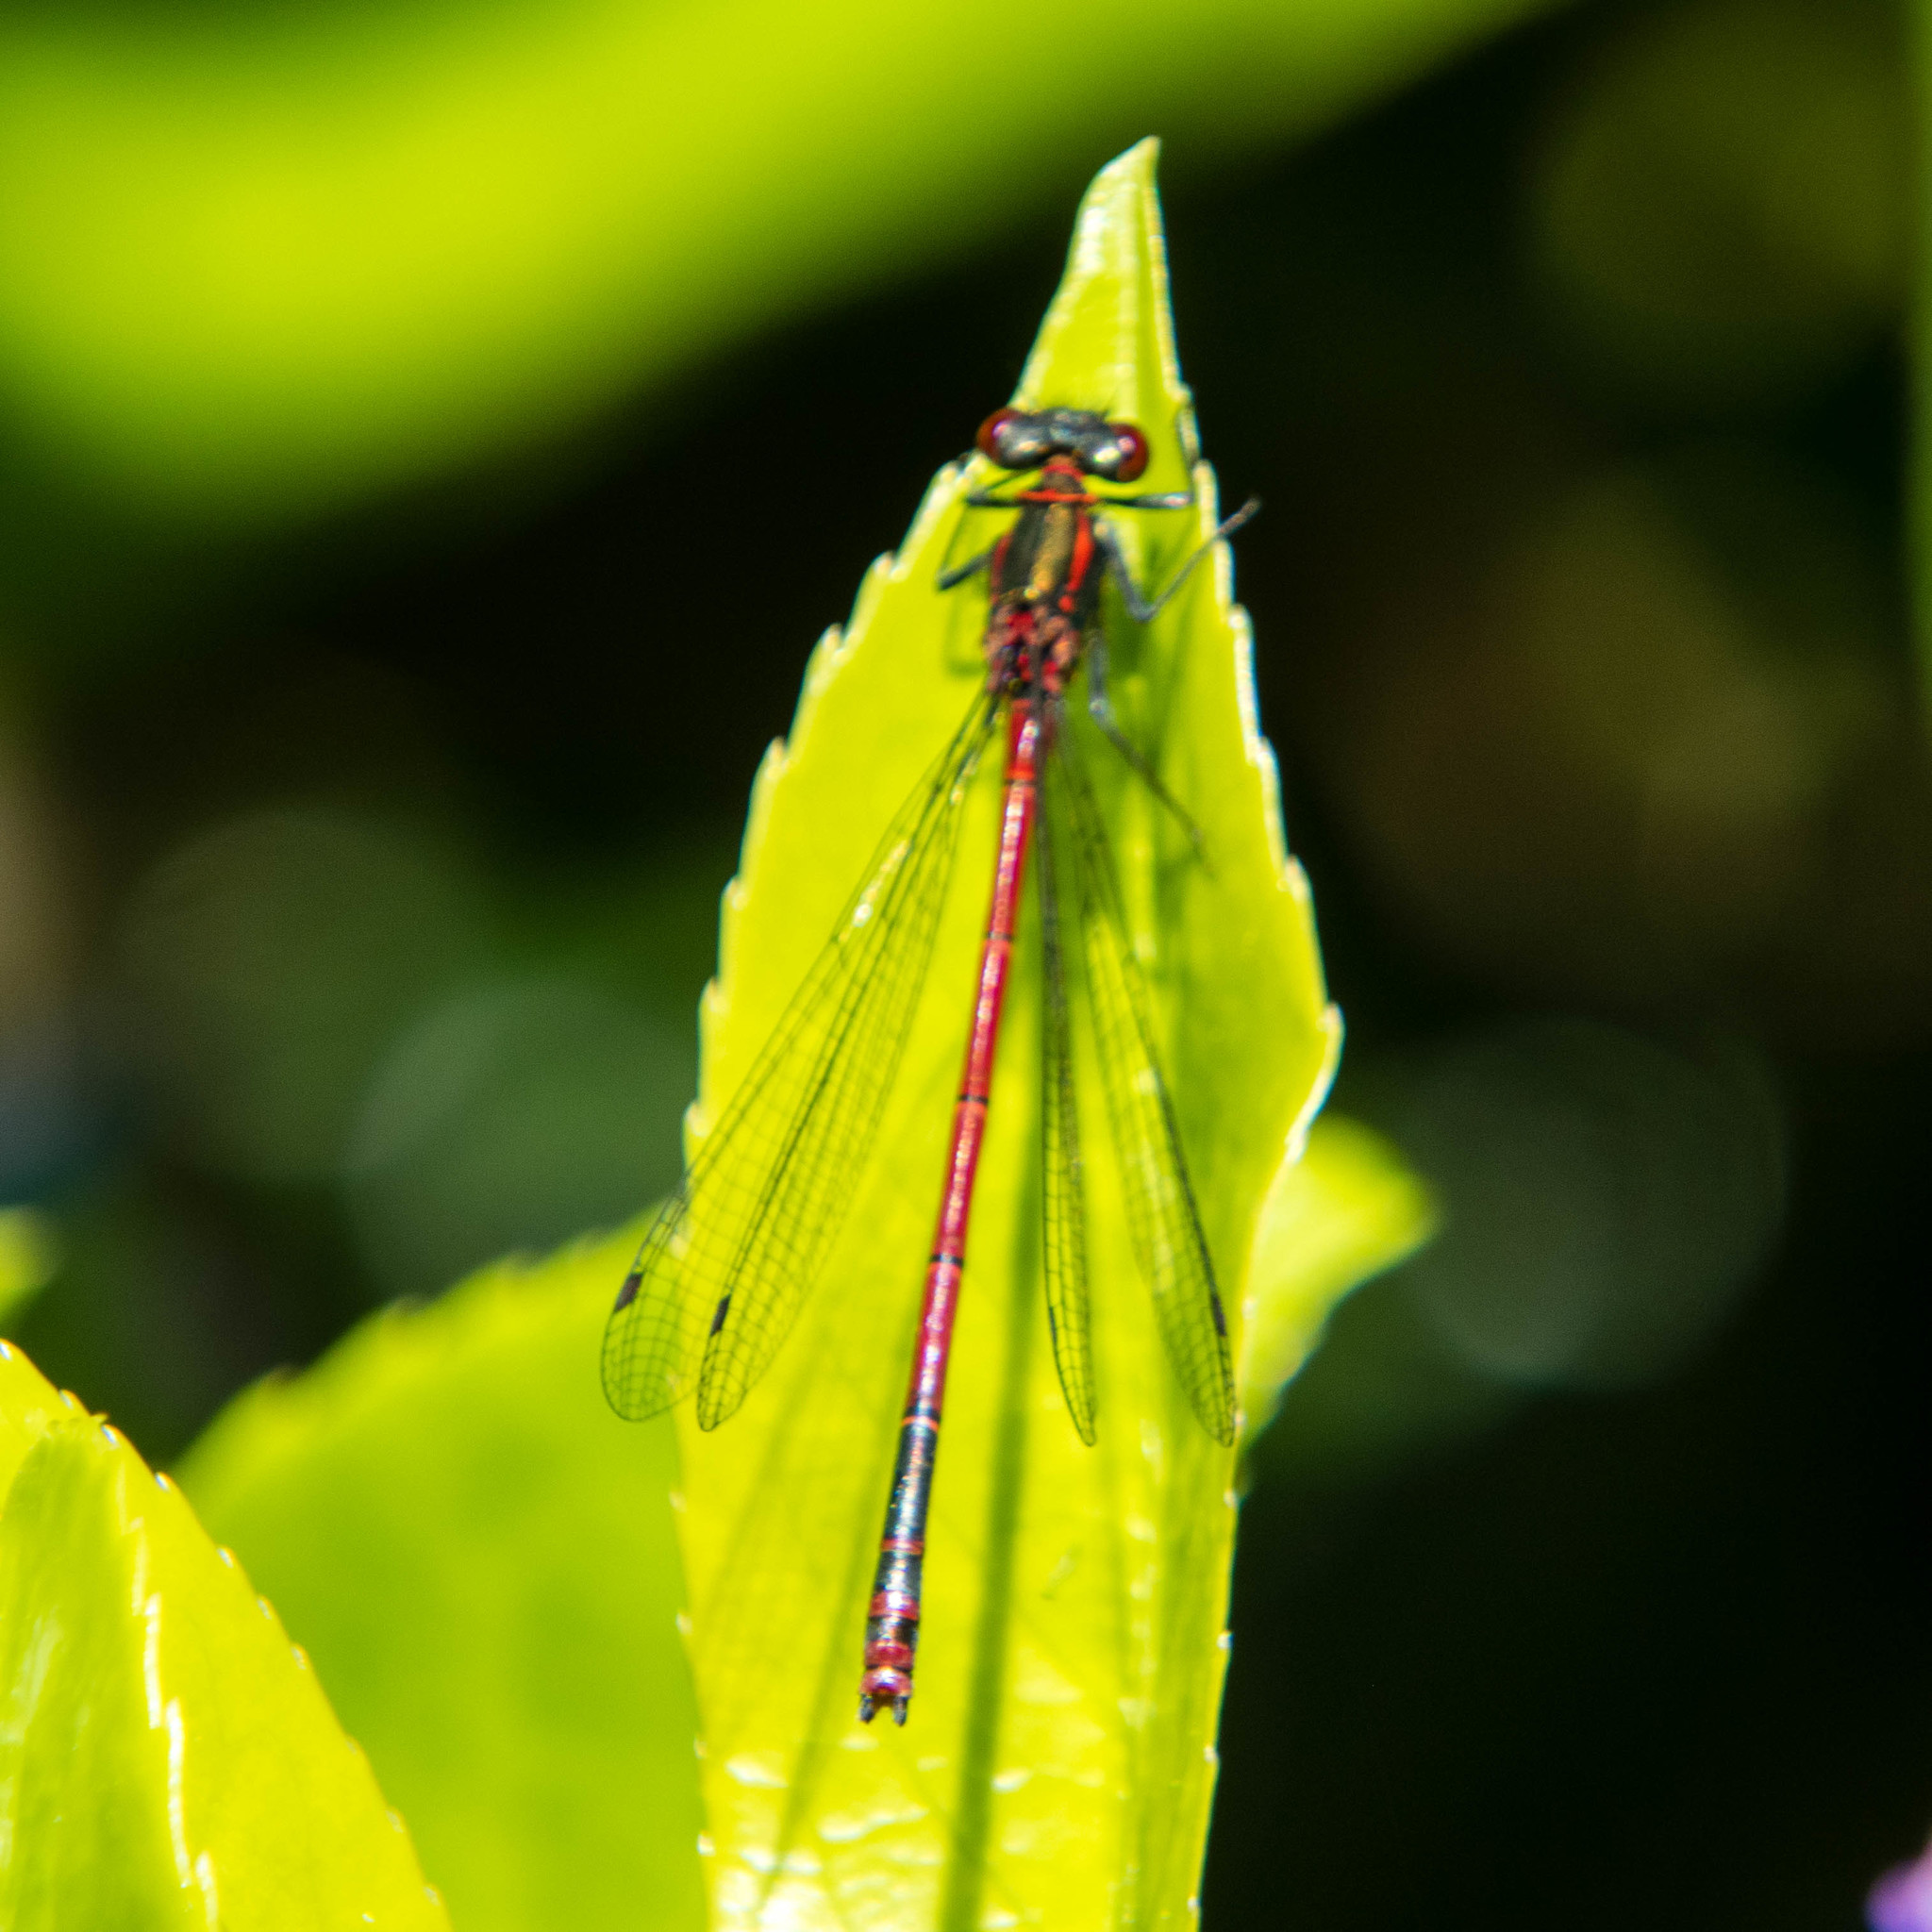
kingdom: Animalia
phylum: Arthropoda
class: Insecta
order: Odonata
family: Coenagrionidae
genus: Pyrrhosoma
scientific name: Pyrrhosoma nymphula
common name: Large red damsel
